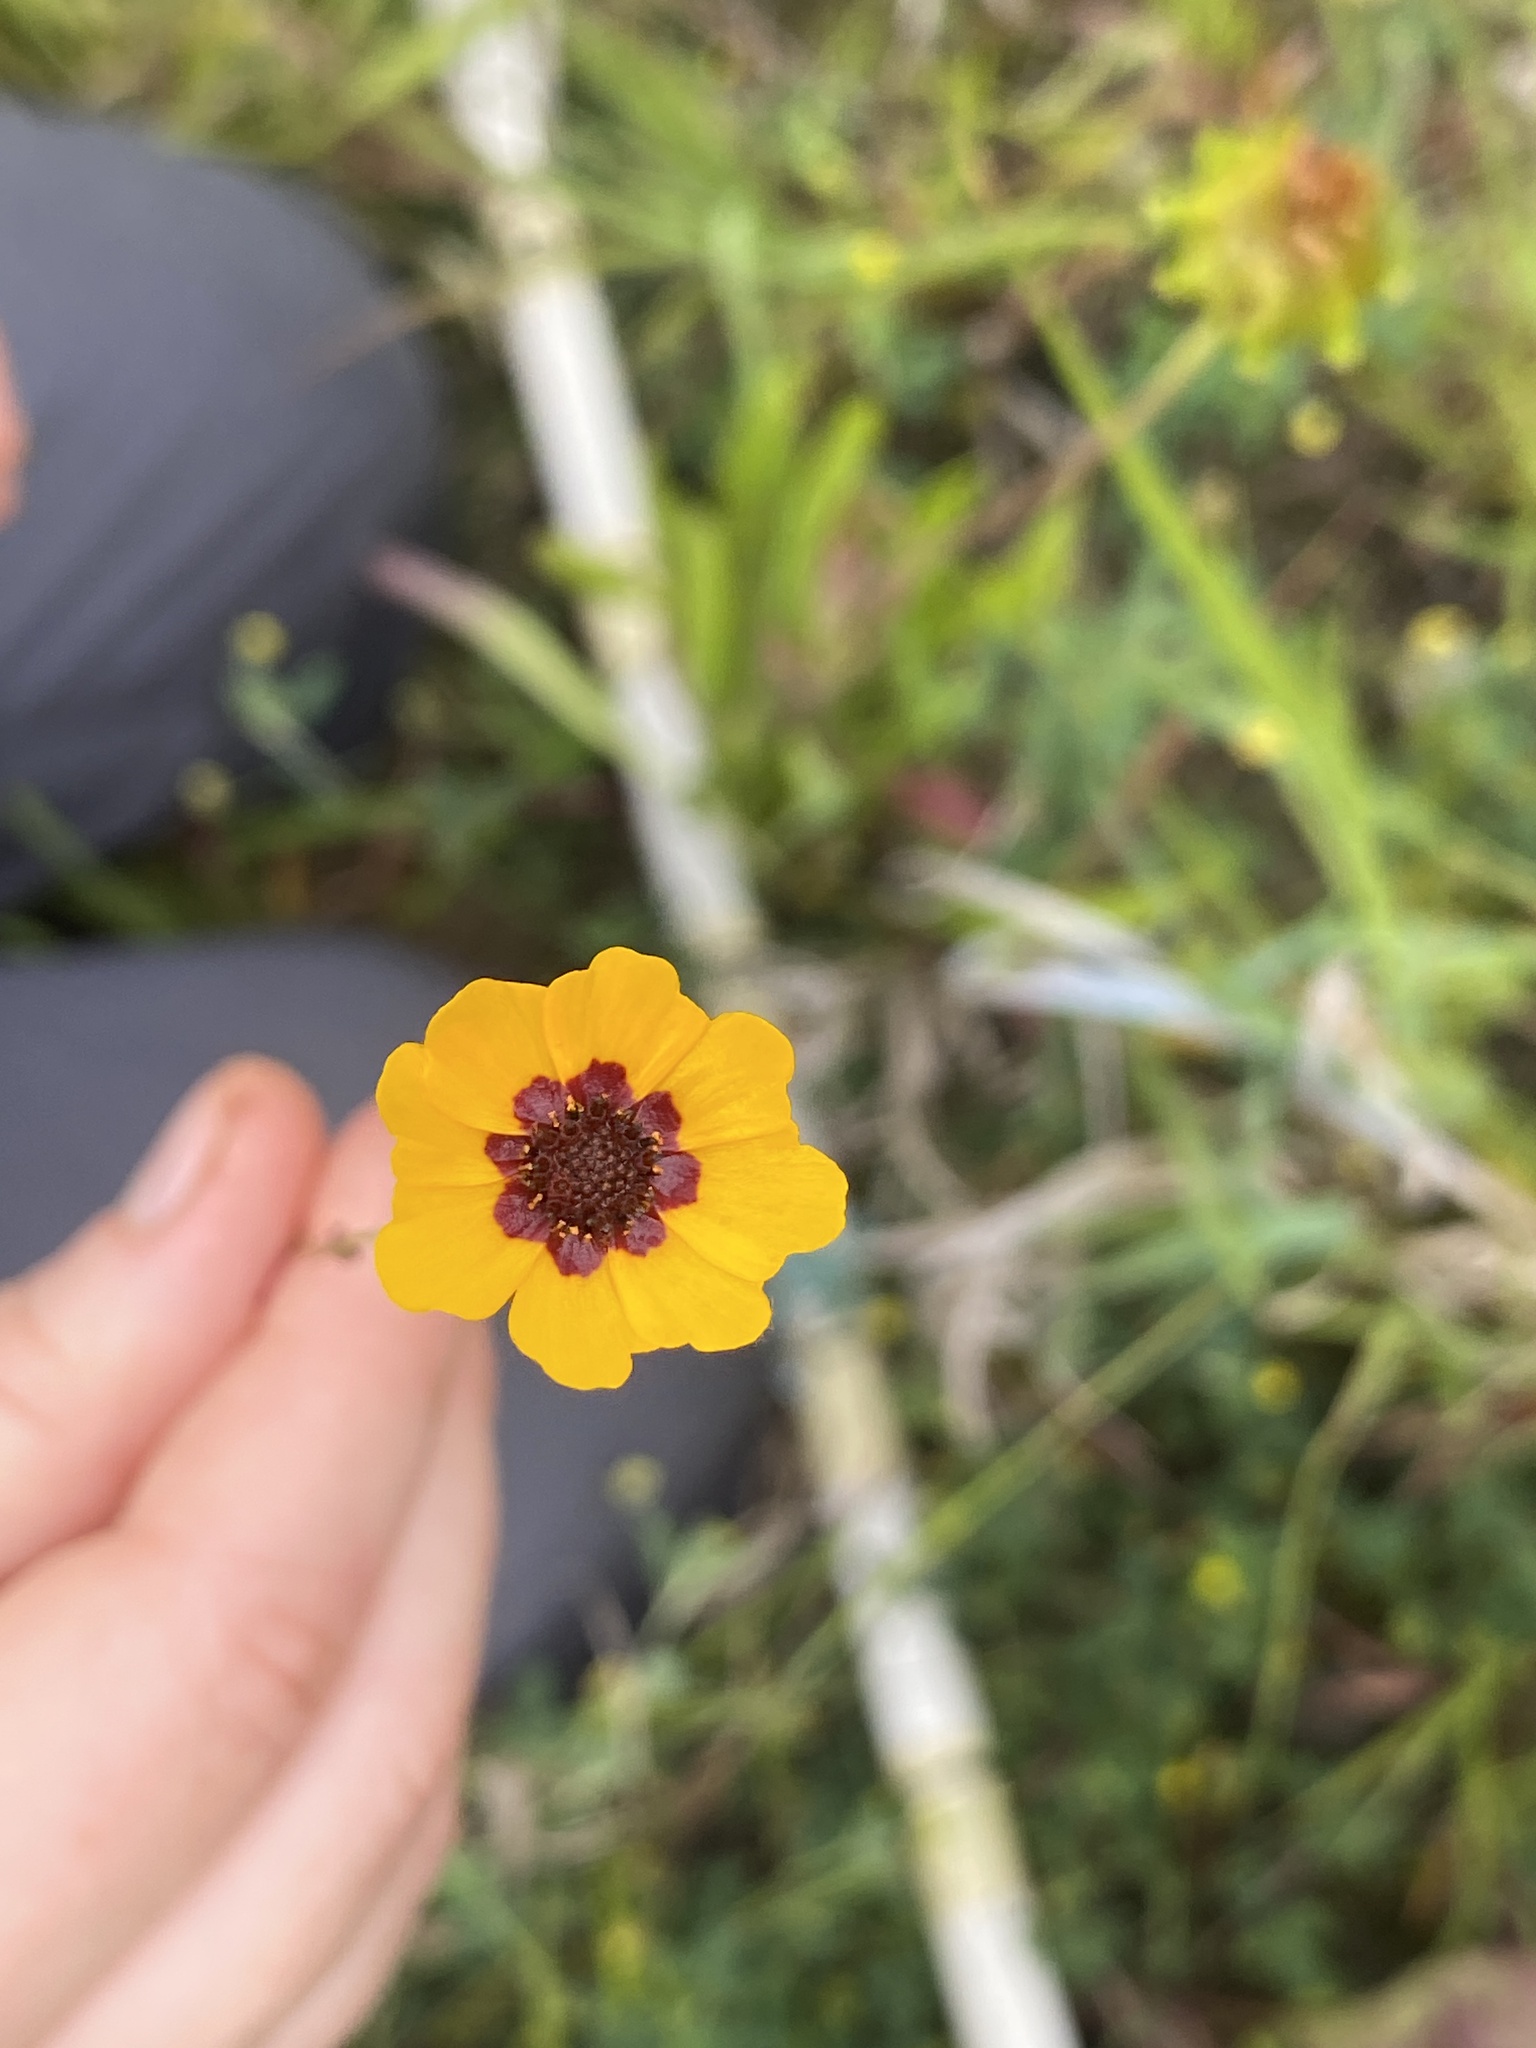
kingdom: Plantae
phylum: Tracheophyta
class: Magnoliopsida
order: Asterales
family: Asteraceae
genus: Coreopsis
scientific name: Coreopsis tinctoria
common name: Garden tickseed
